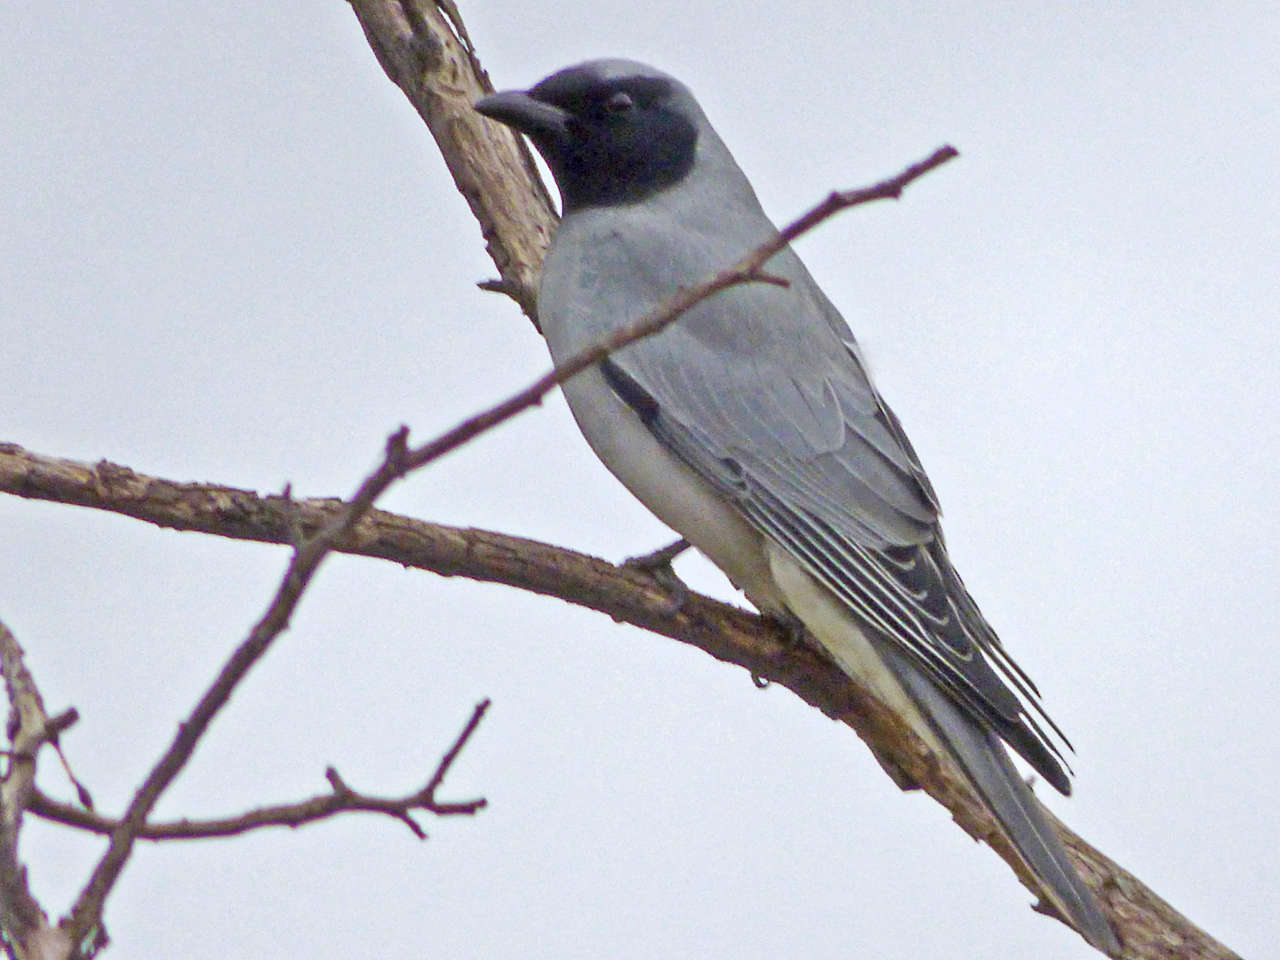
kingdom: Animalia
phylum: Chordata
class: Aves
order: Passeriformes
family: Campephagidae
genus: Coracina
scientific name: Coracina novaehollandiae
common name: Black-faced cuckooshrike
